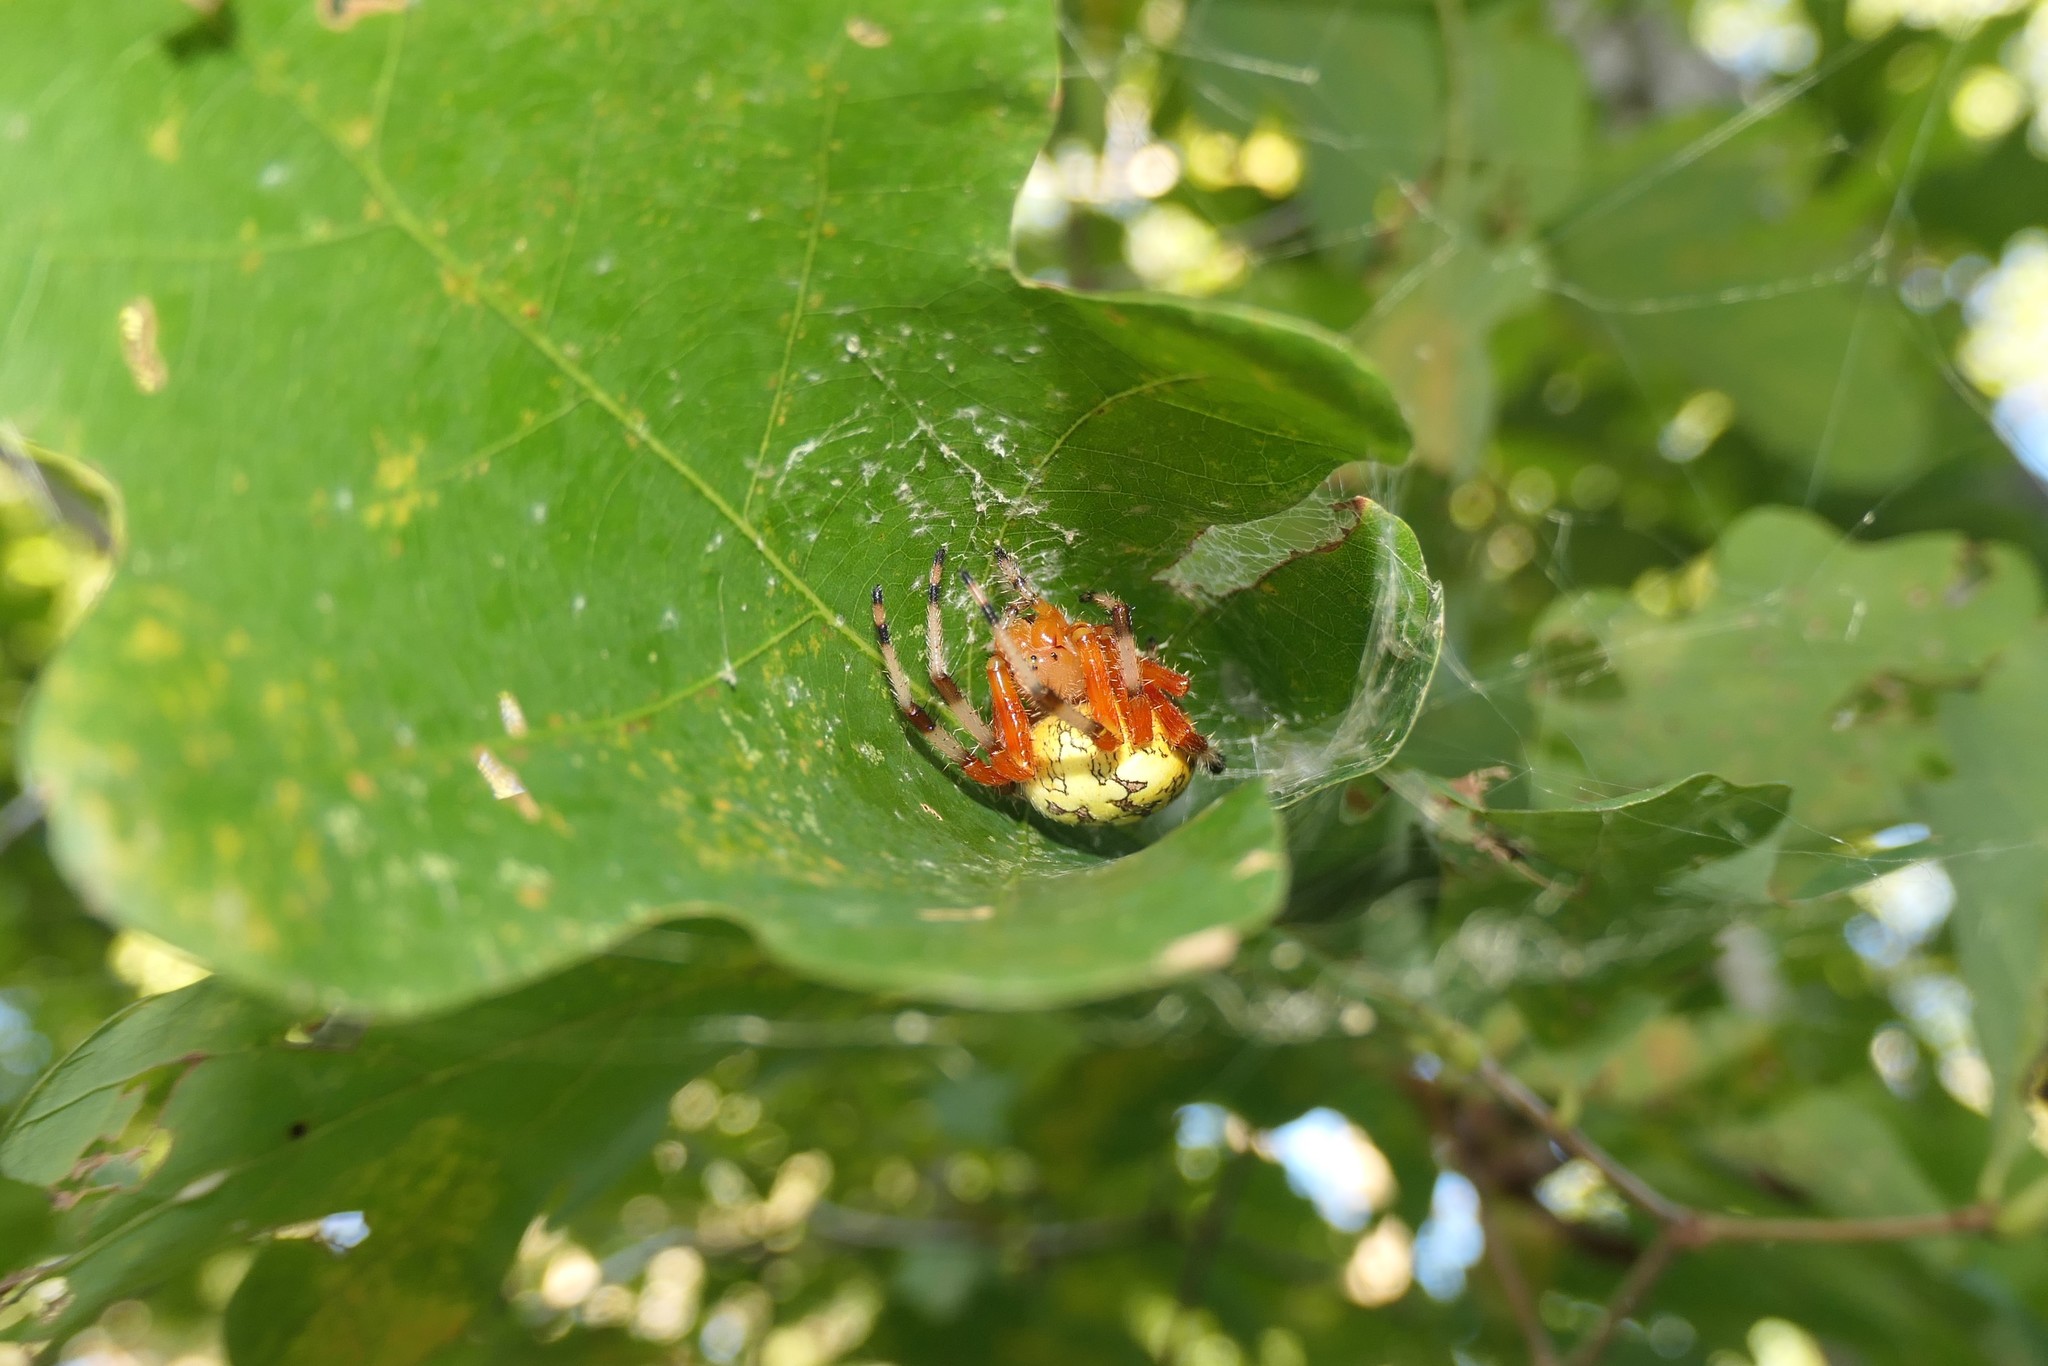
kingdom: Animalia
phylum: Arthropoda
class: Arachnida
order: Araneae
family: Araneidae
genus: Araneus
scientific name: Araneus marmoreus
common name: Marbled orbweaver
